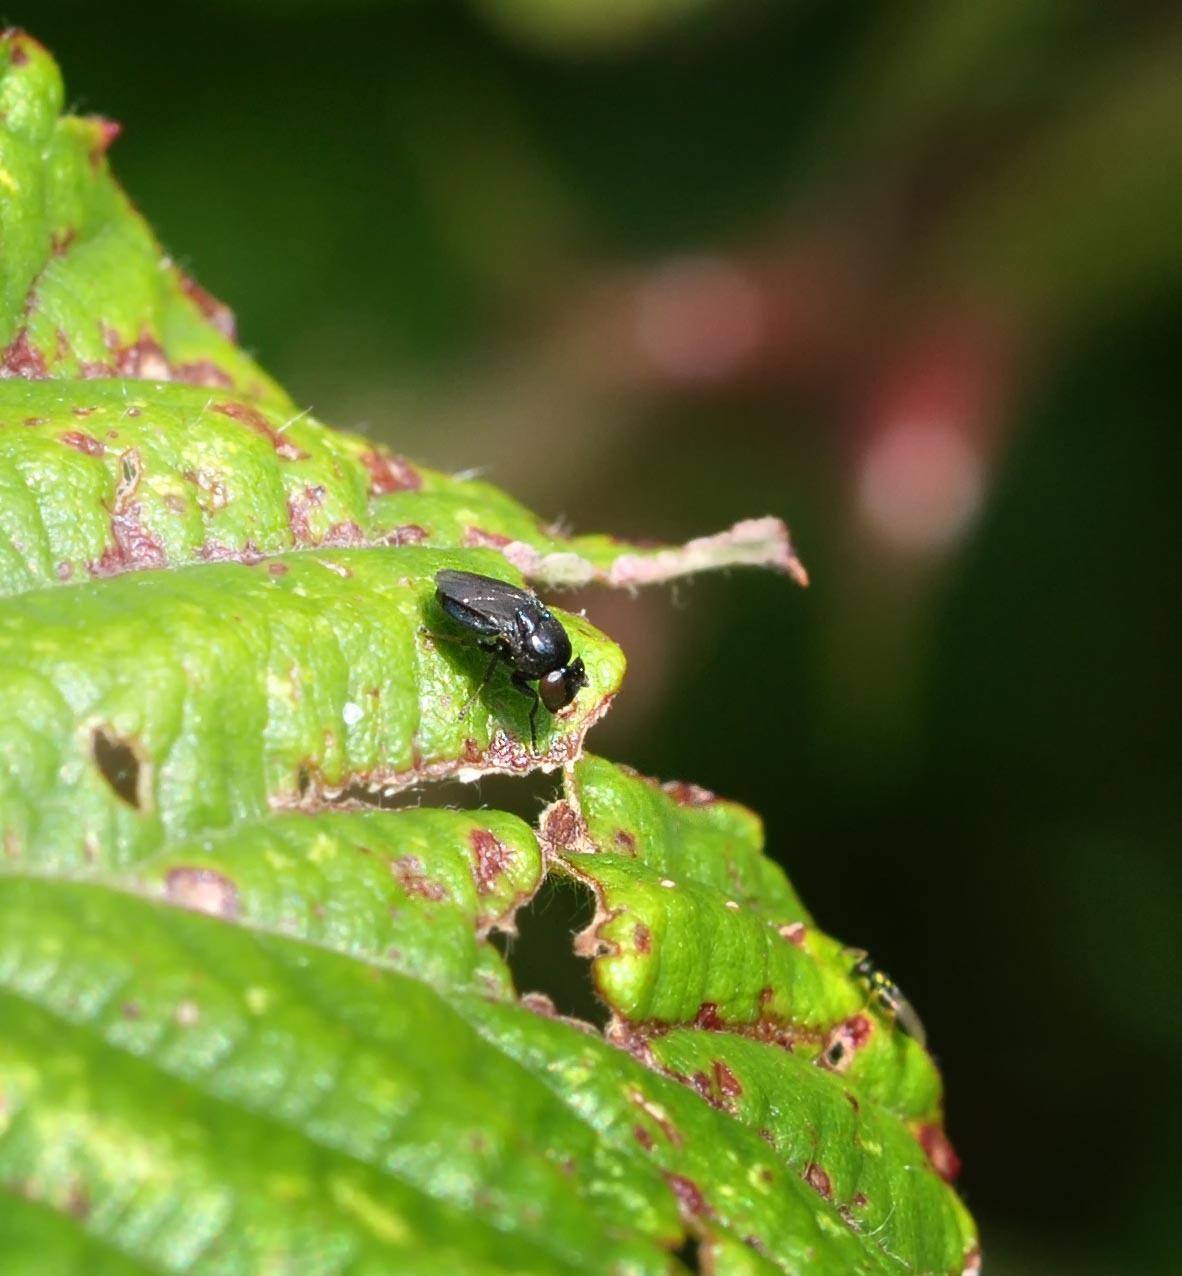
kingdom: Animalia
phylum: Arthropoda
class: Insecta
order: Diptera
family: Ephydridae
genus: Discomyza
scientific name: Discomyza incurva
